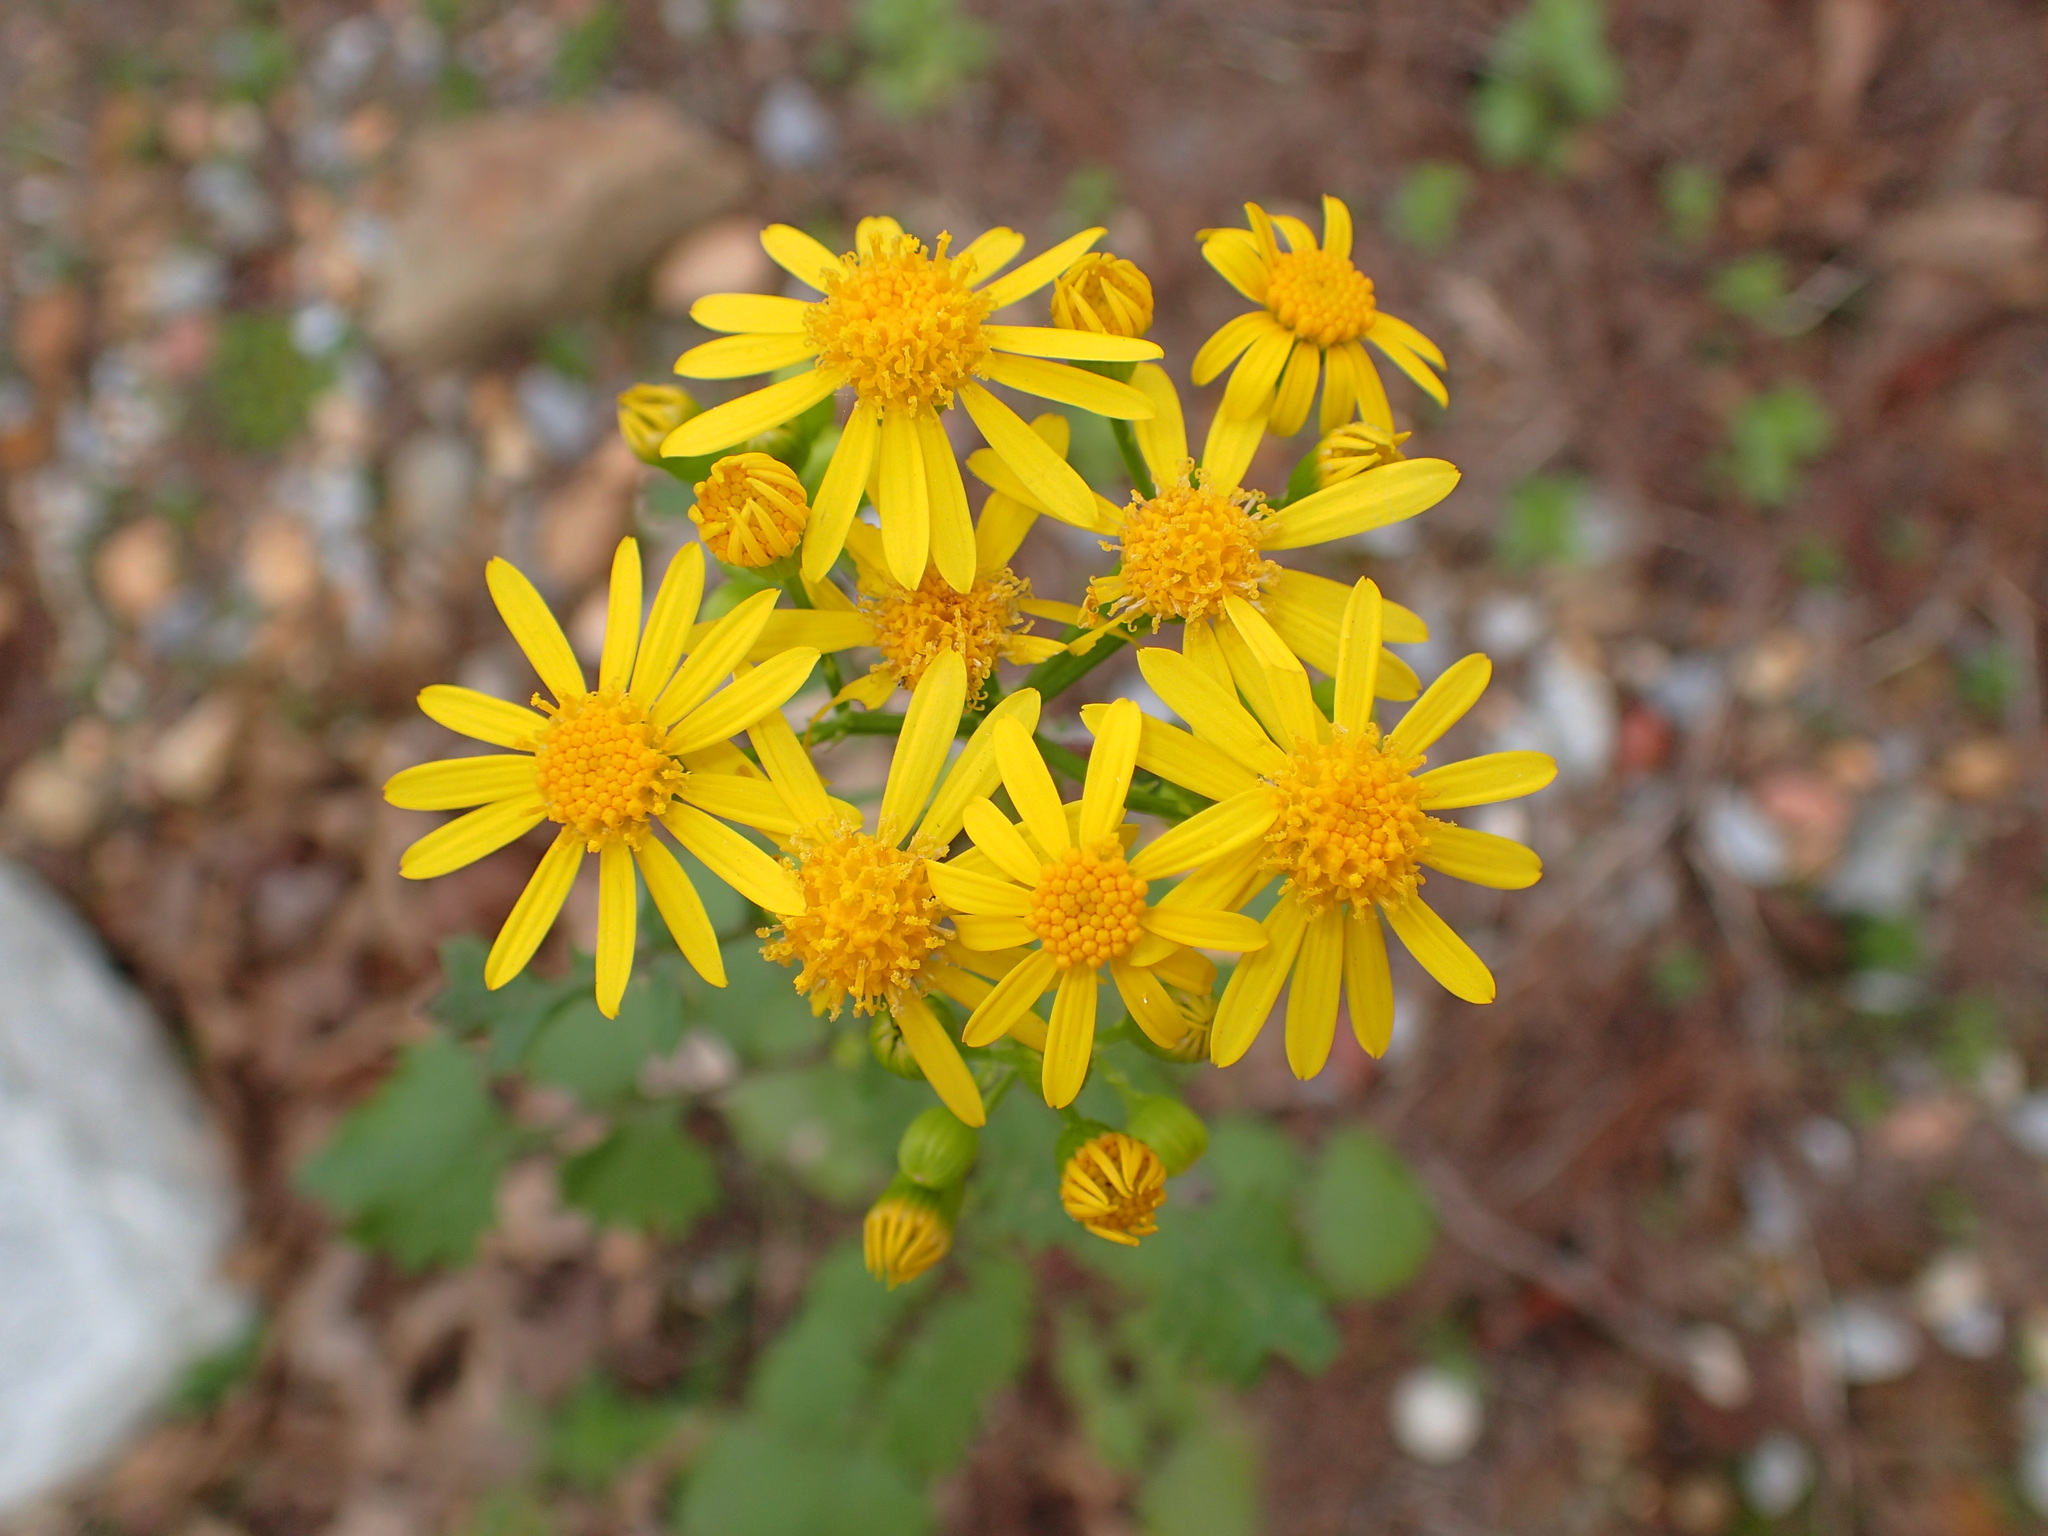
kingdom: Plantae
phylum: Tracheophyta
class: Magnoliopsida
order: Asterales
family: Asteraceae
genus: Packera
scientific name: Packera glabella
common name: Butterweed
